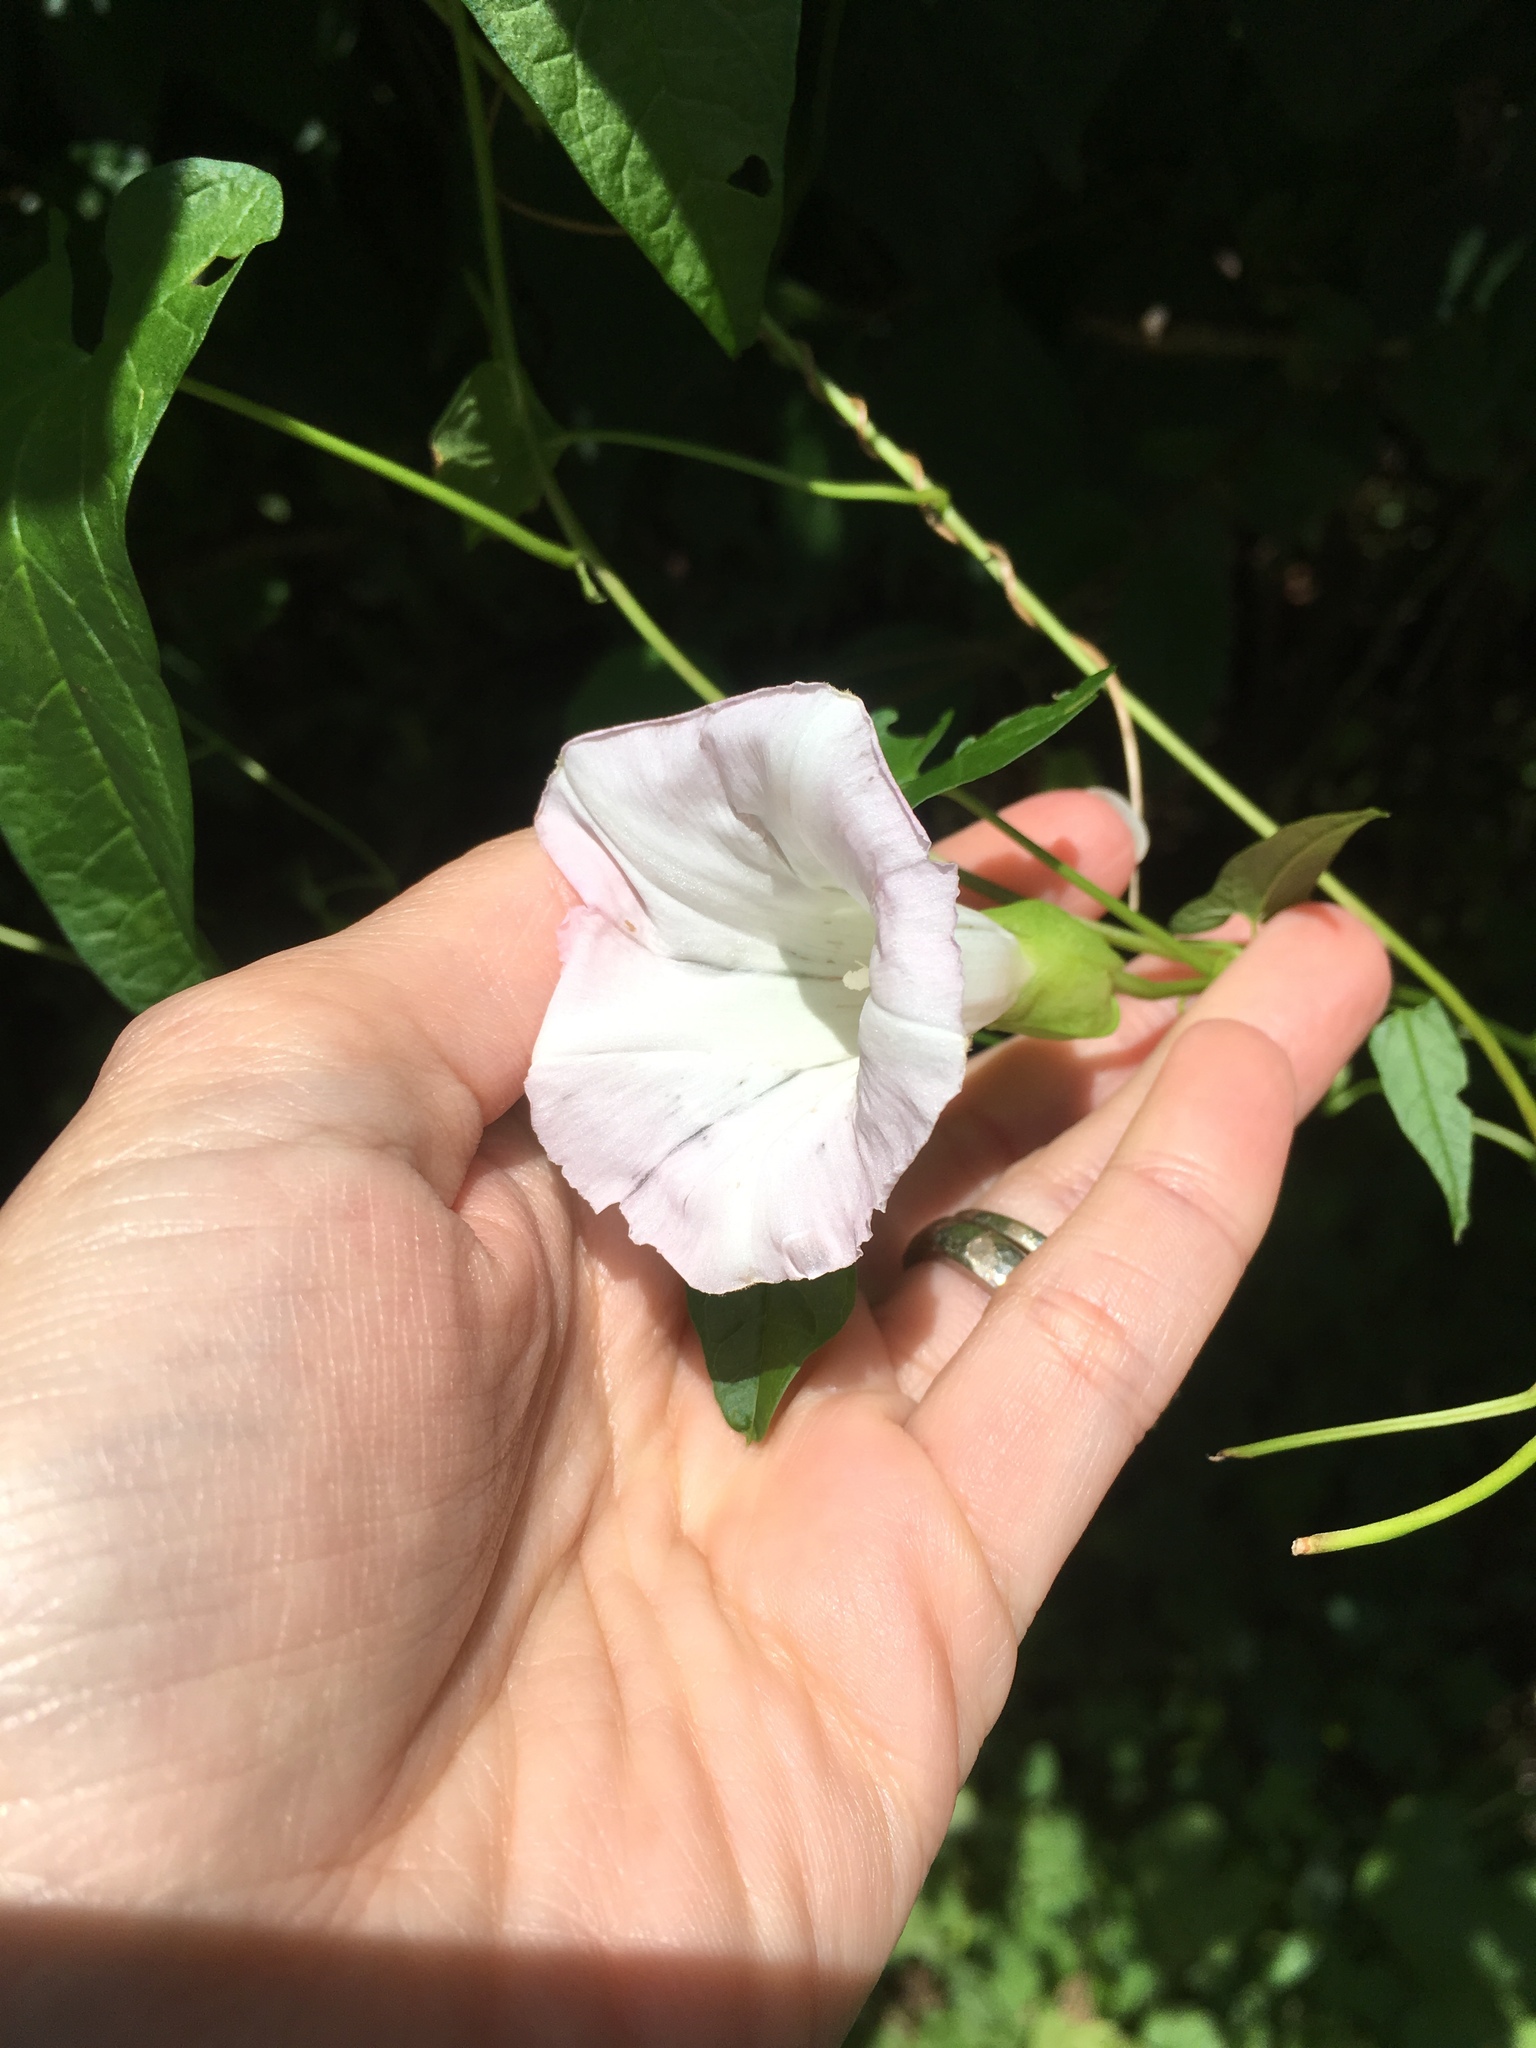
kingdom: Plantae
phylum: Tracheophyta
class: Magnoliopsida
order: Solanales
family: Convolvulaceae
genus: Calystegia
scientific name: Calystegia sepium
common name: Hedge bindweed
